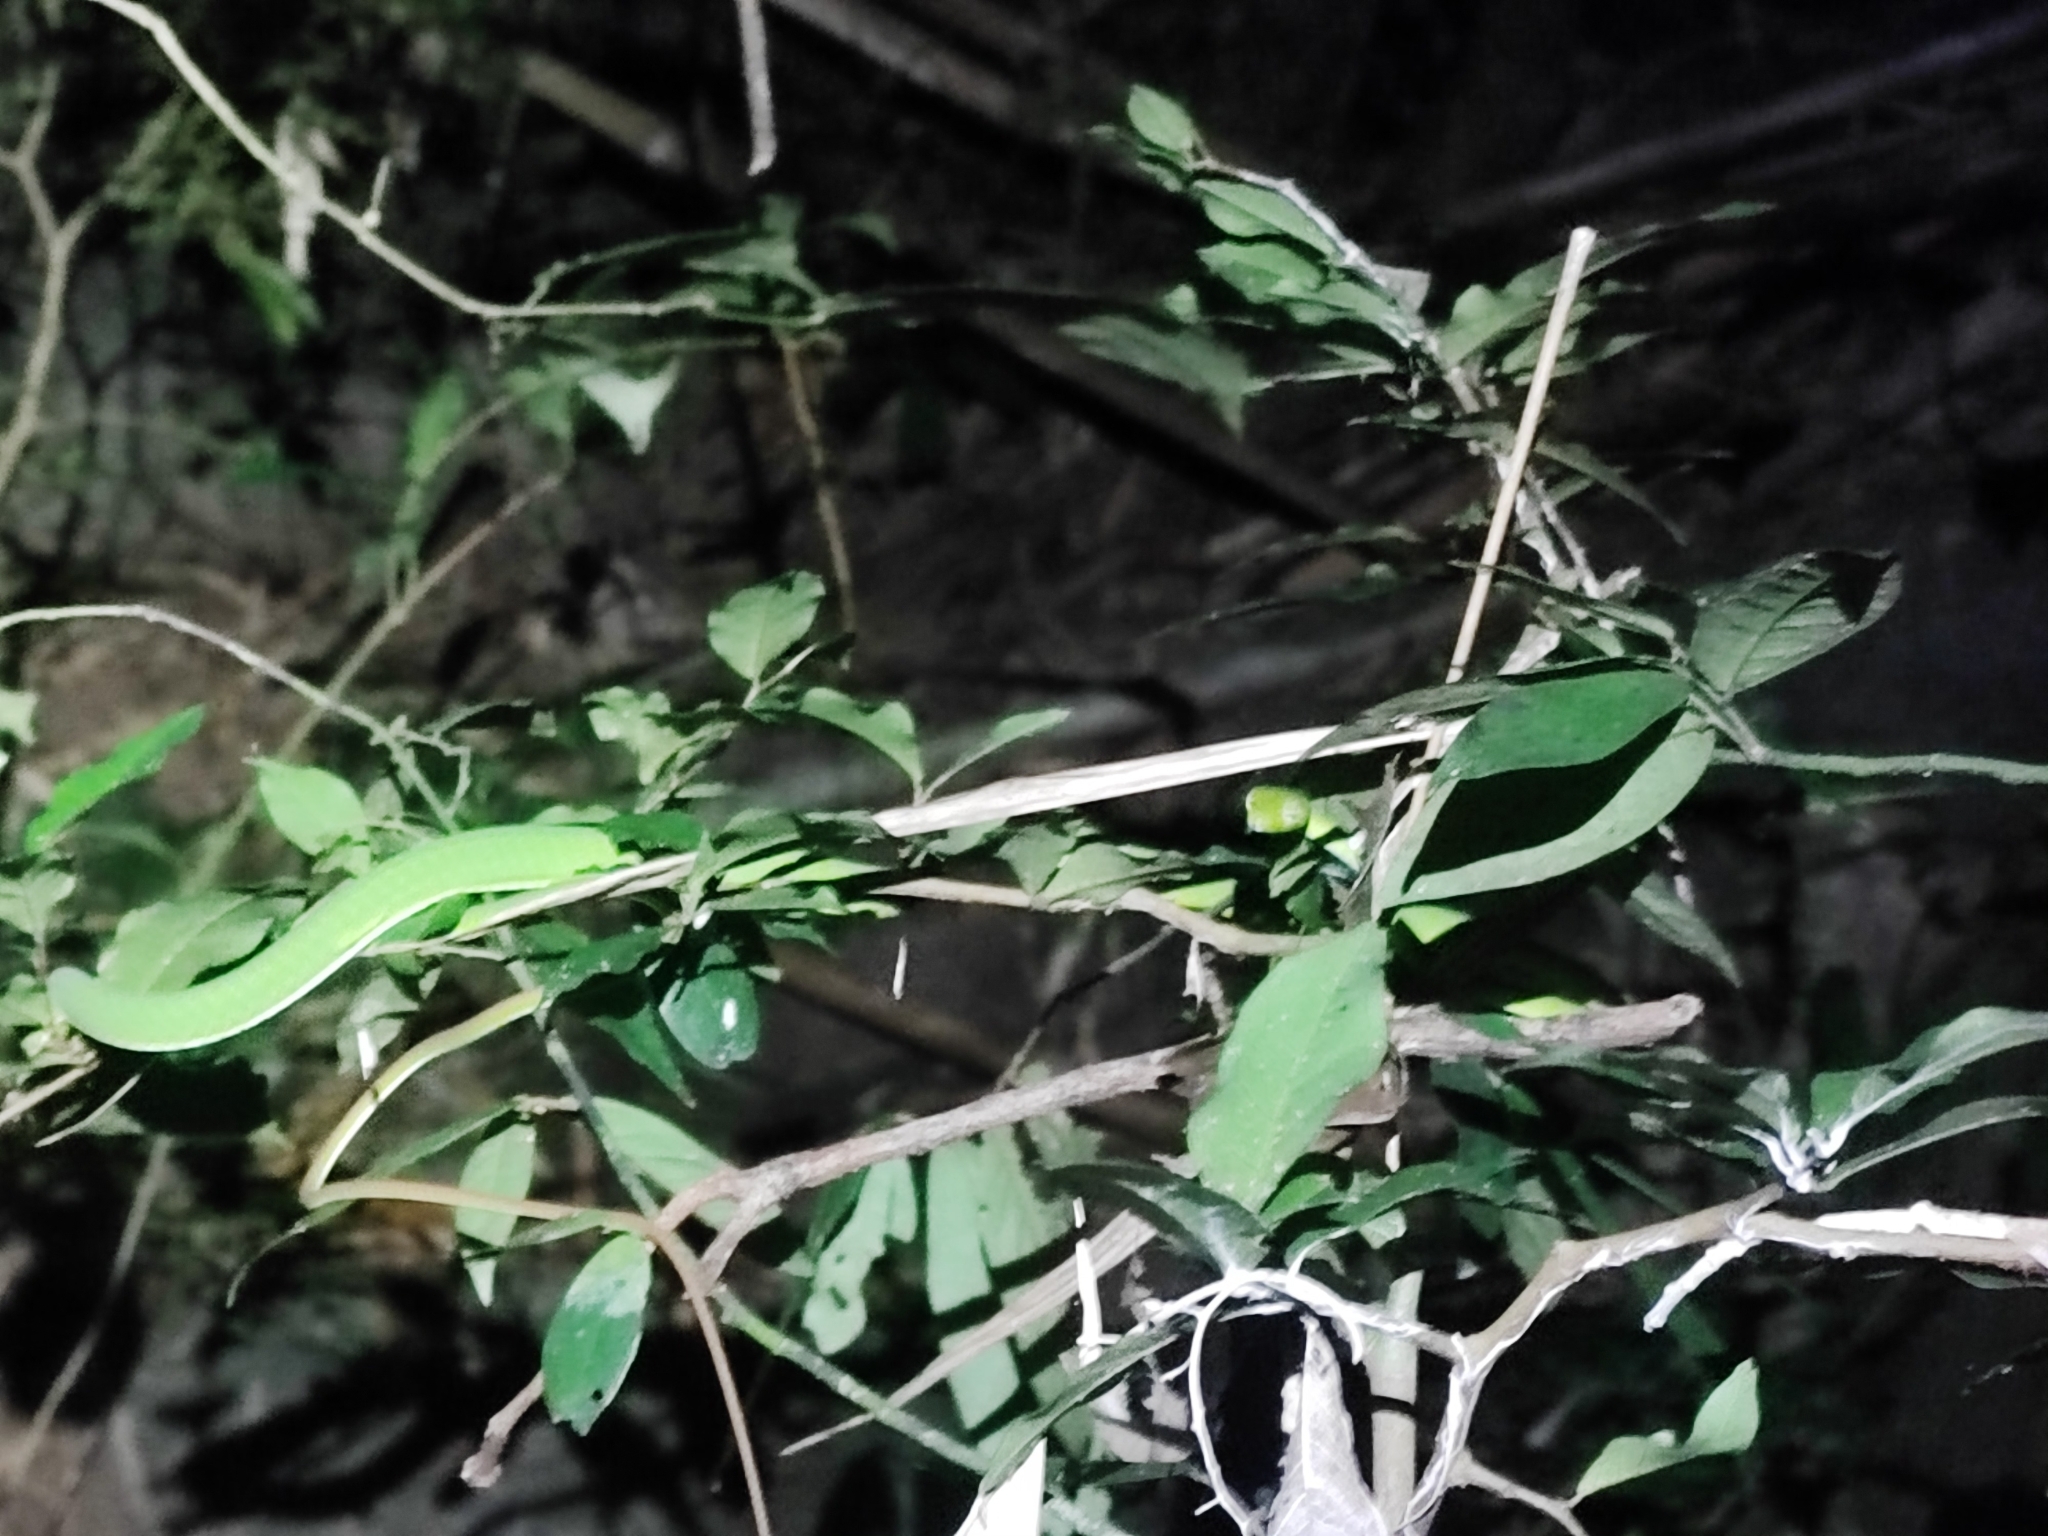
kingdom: Animalia
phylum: Chordata
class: Squamata
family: Colubridae
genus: Ahaetulla
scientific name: Ahaetulla prasina
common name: Oriental whip snake
